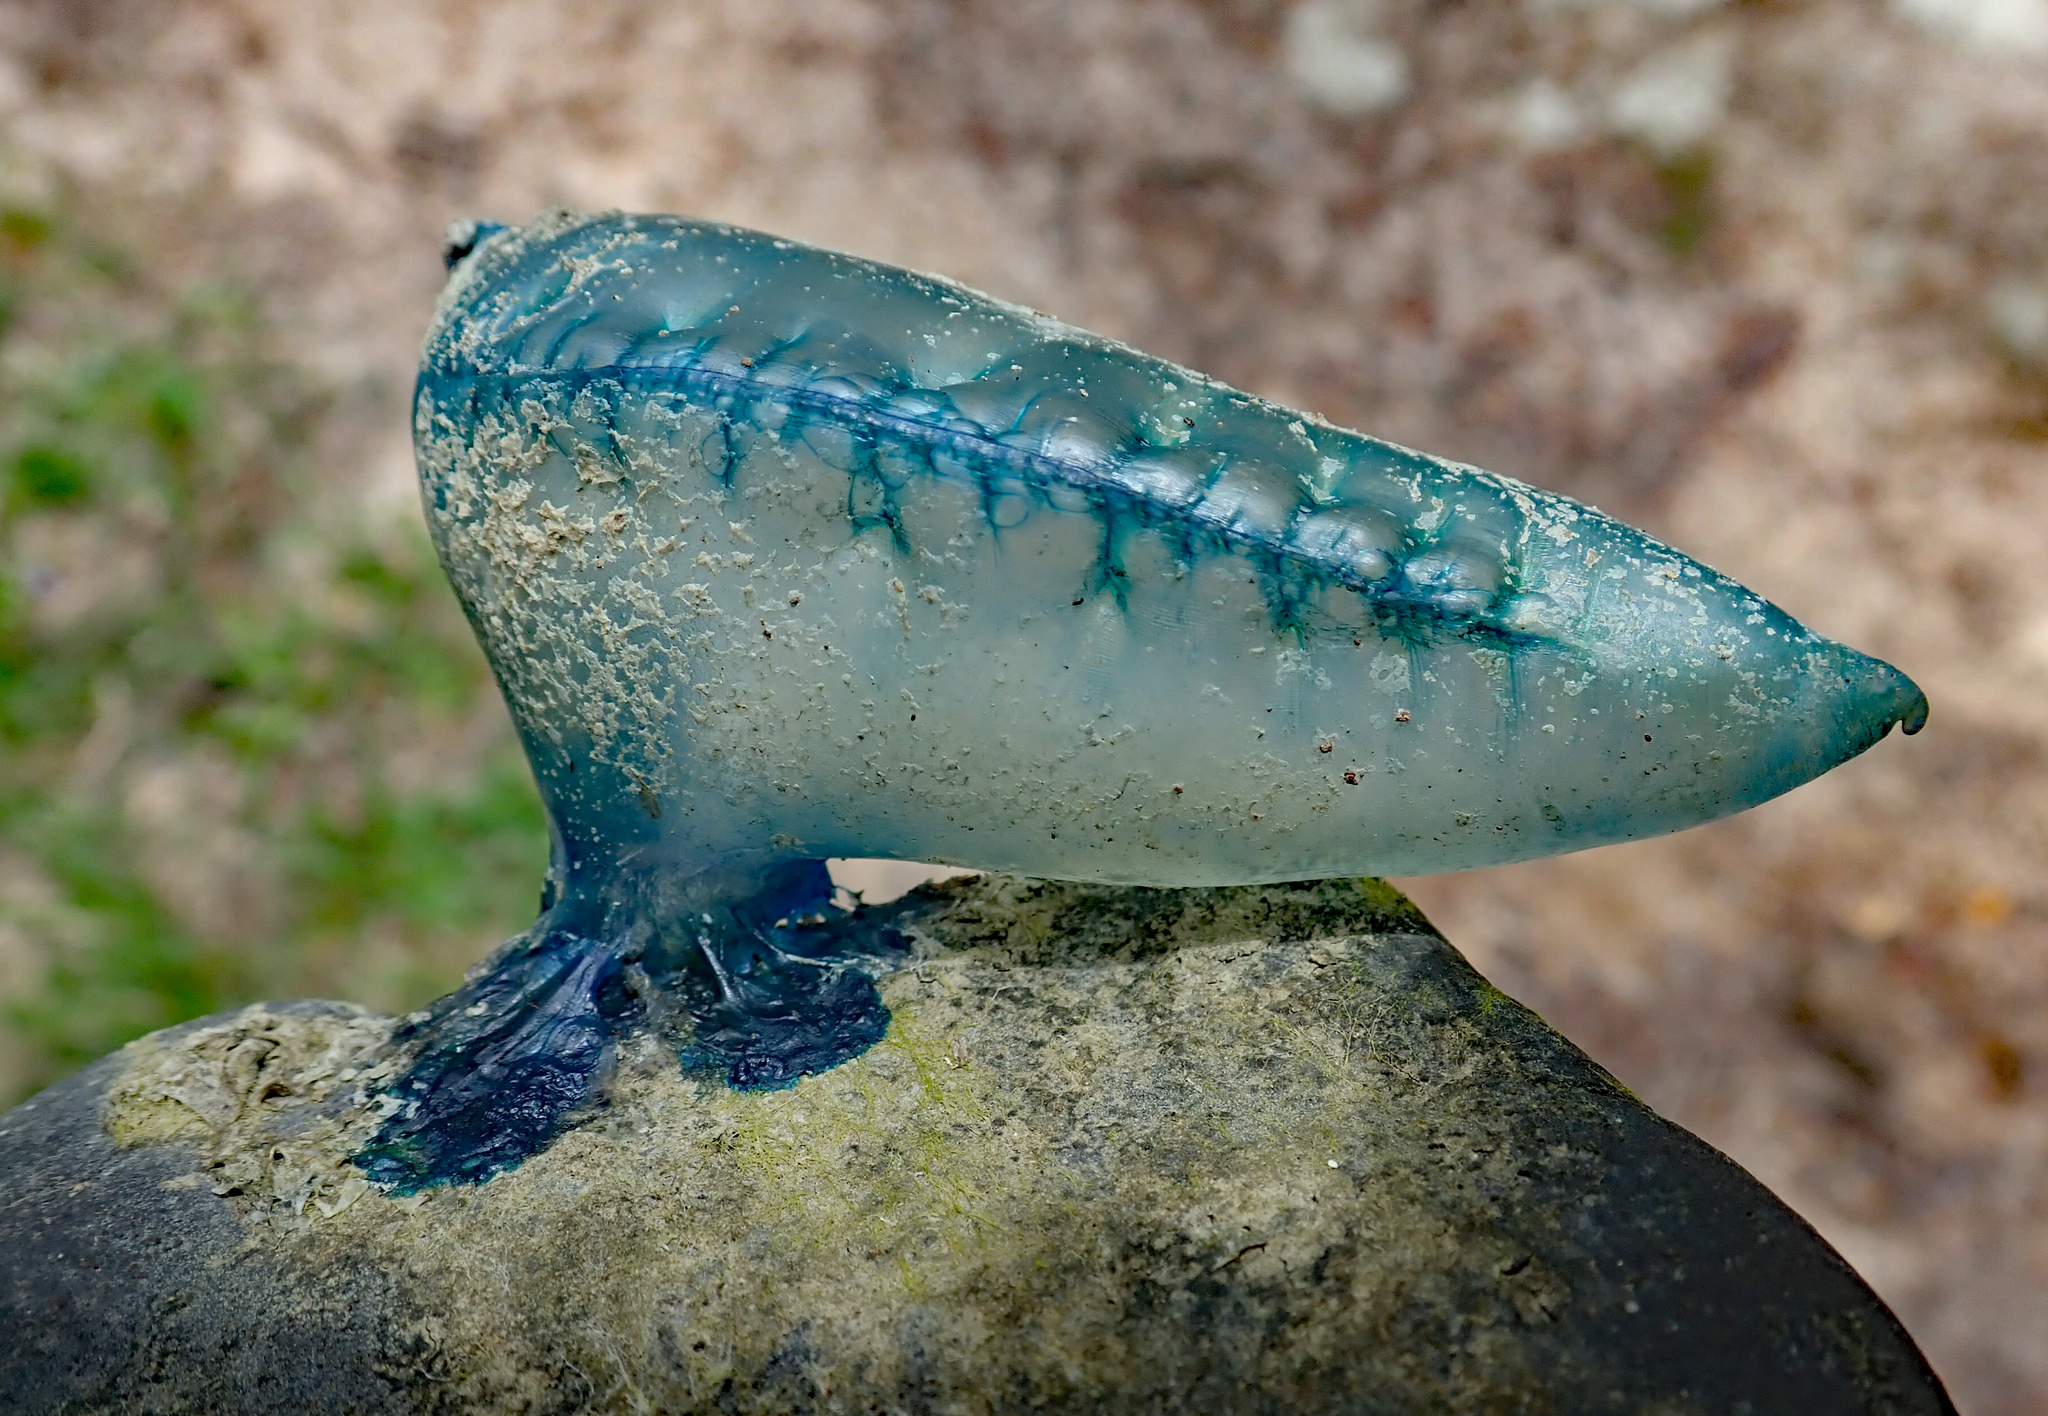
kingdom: Animalia
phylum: Cnidaria
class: Hydrozoa
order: Siphonophorae
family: Physaliidae
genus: Physalia
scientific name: Physalia physalis
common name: Portuguese man-of-war
